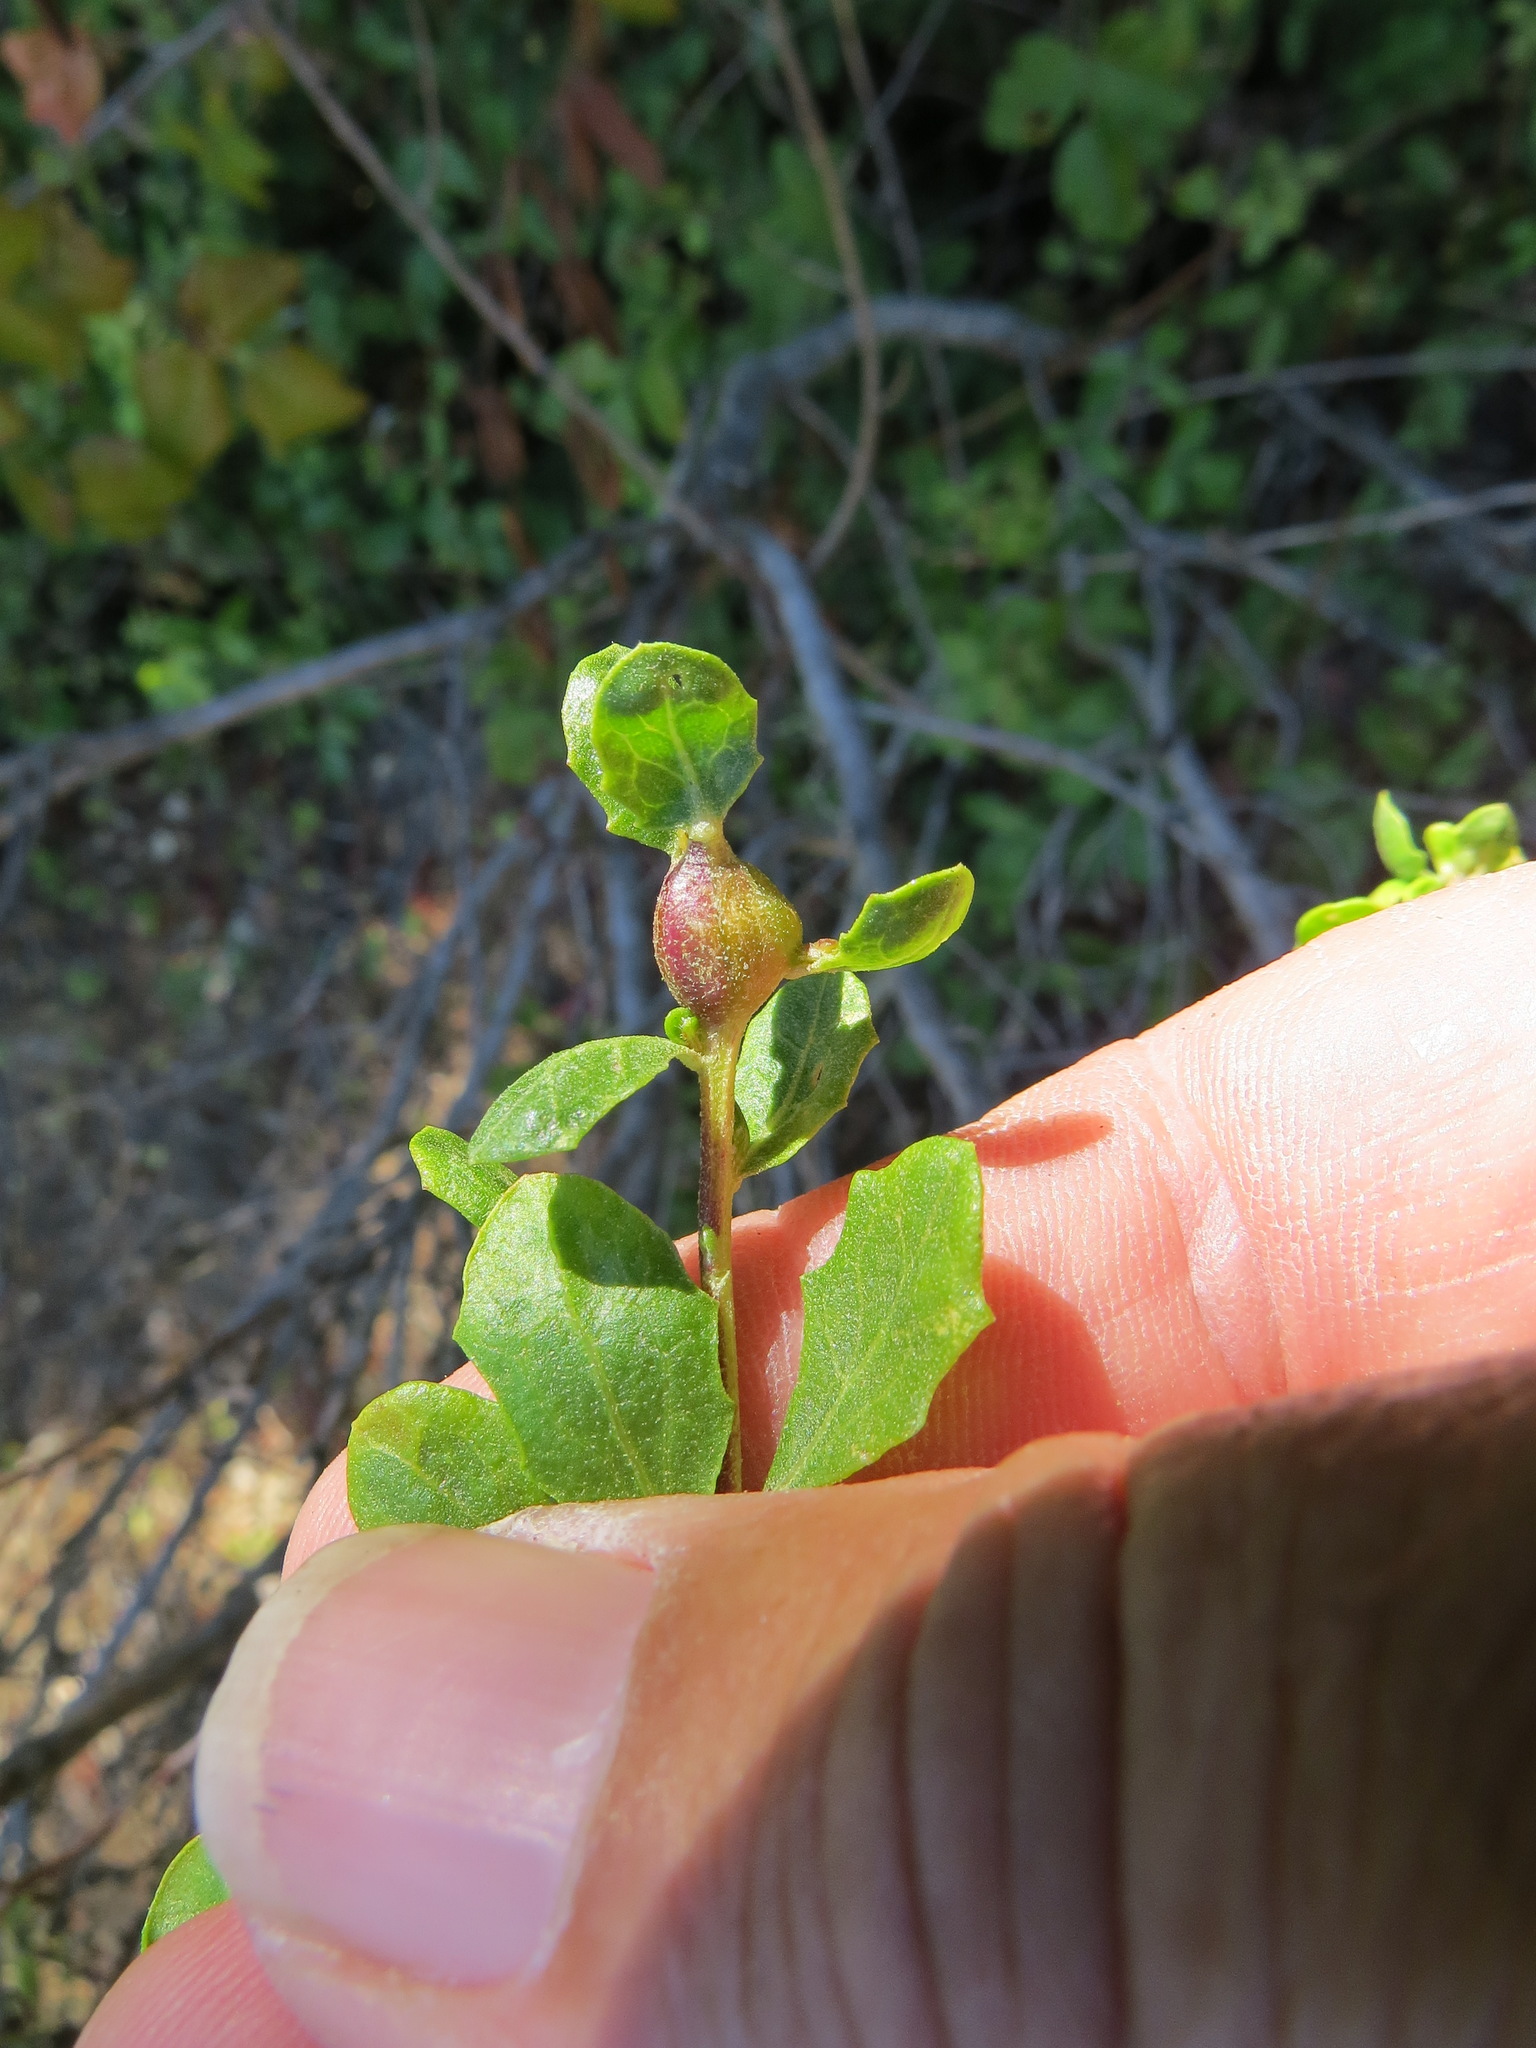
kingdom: Animalia
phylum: Arthropoda
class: Insecta
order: Lepidoptera
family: Gelechiidae
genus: Gnorimoschema
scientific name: Gnorimoschema baccharisella
